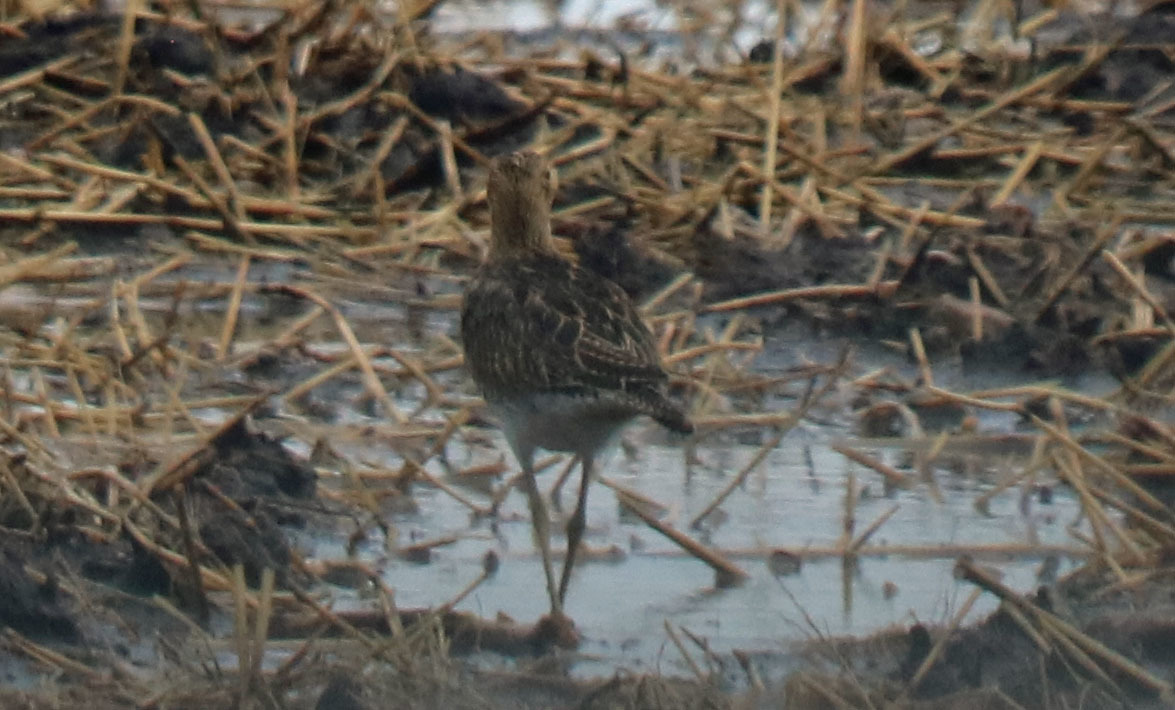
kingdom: Animalia
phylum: Chordata
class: Aves
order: Charadriiformes
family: Scolopacidae
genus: Bartramia
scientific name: Bartramia longicauda
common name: Upland sandpiper
